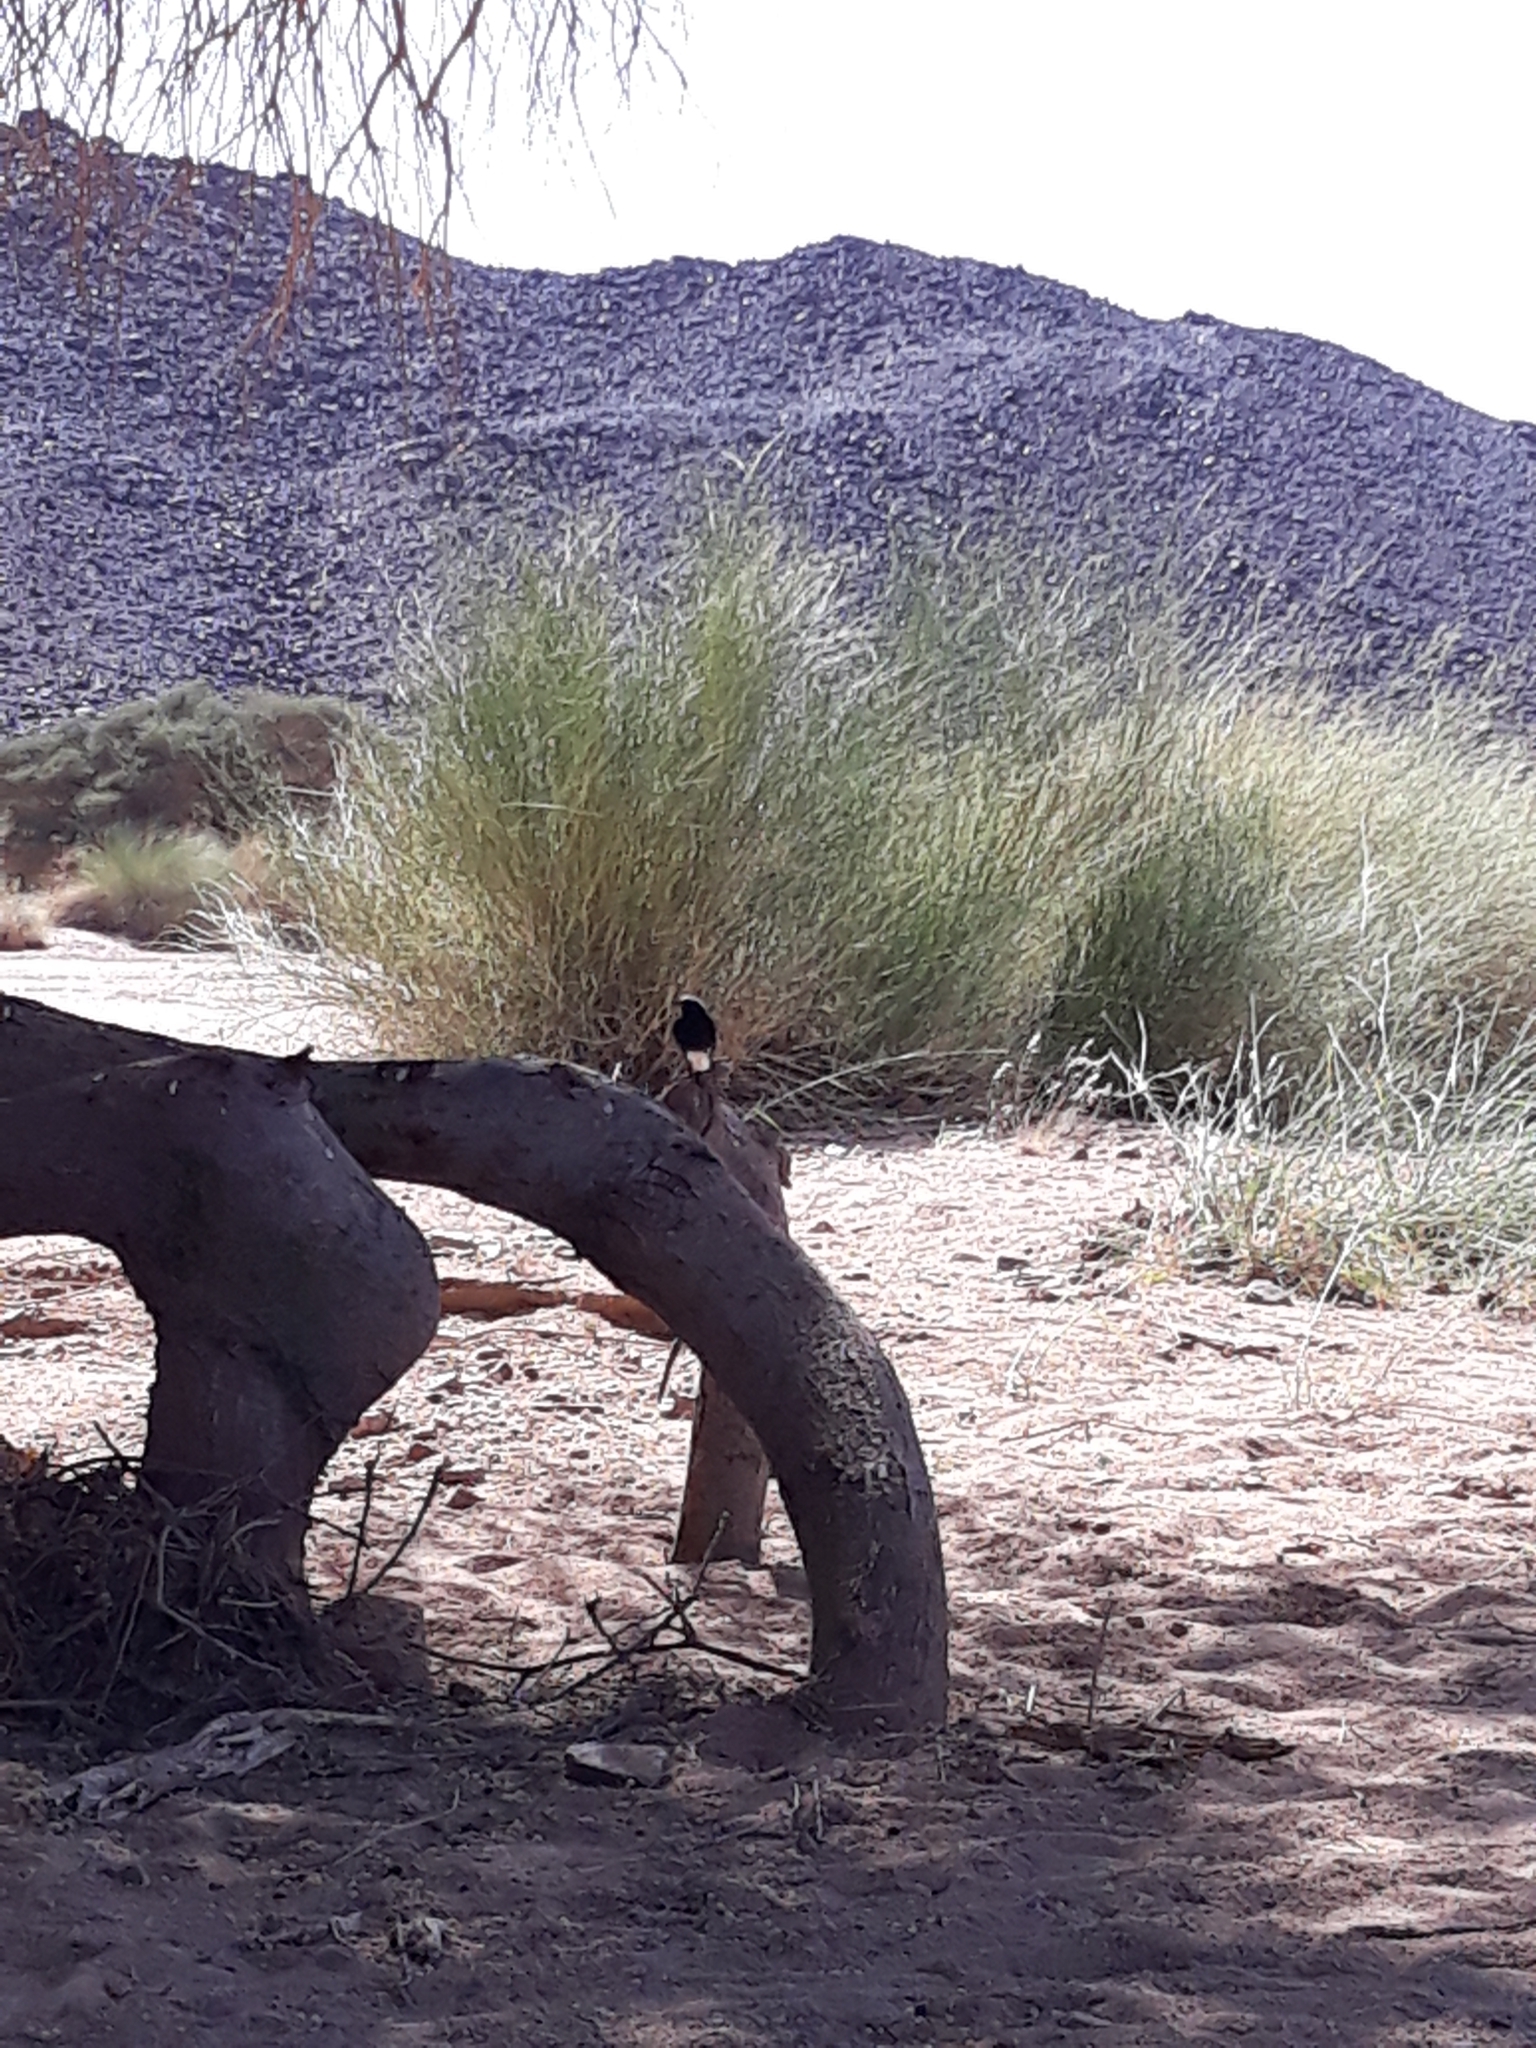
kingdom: Animalia
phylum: Chordata
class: Aves
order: Passeriformes
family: Muscicapidae
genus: Oenanthe
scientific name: Oenanthe leucopyga
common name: White-crowned wheatear
